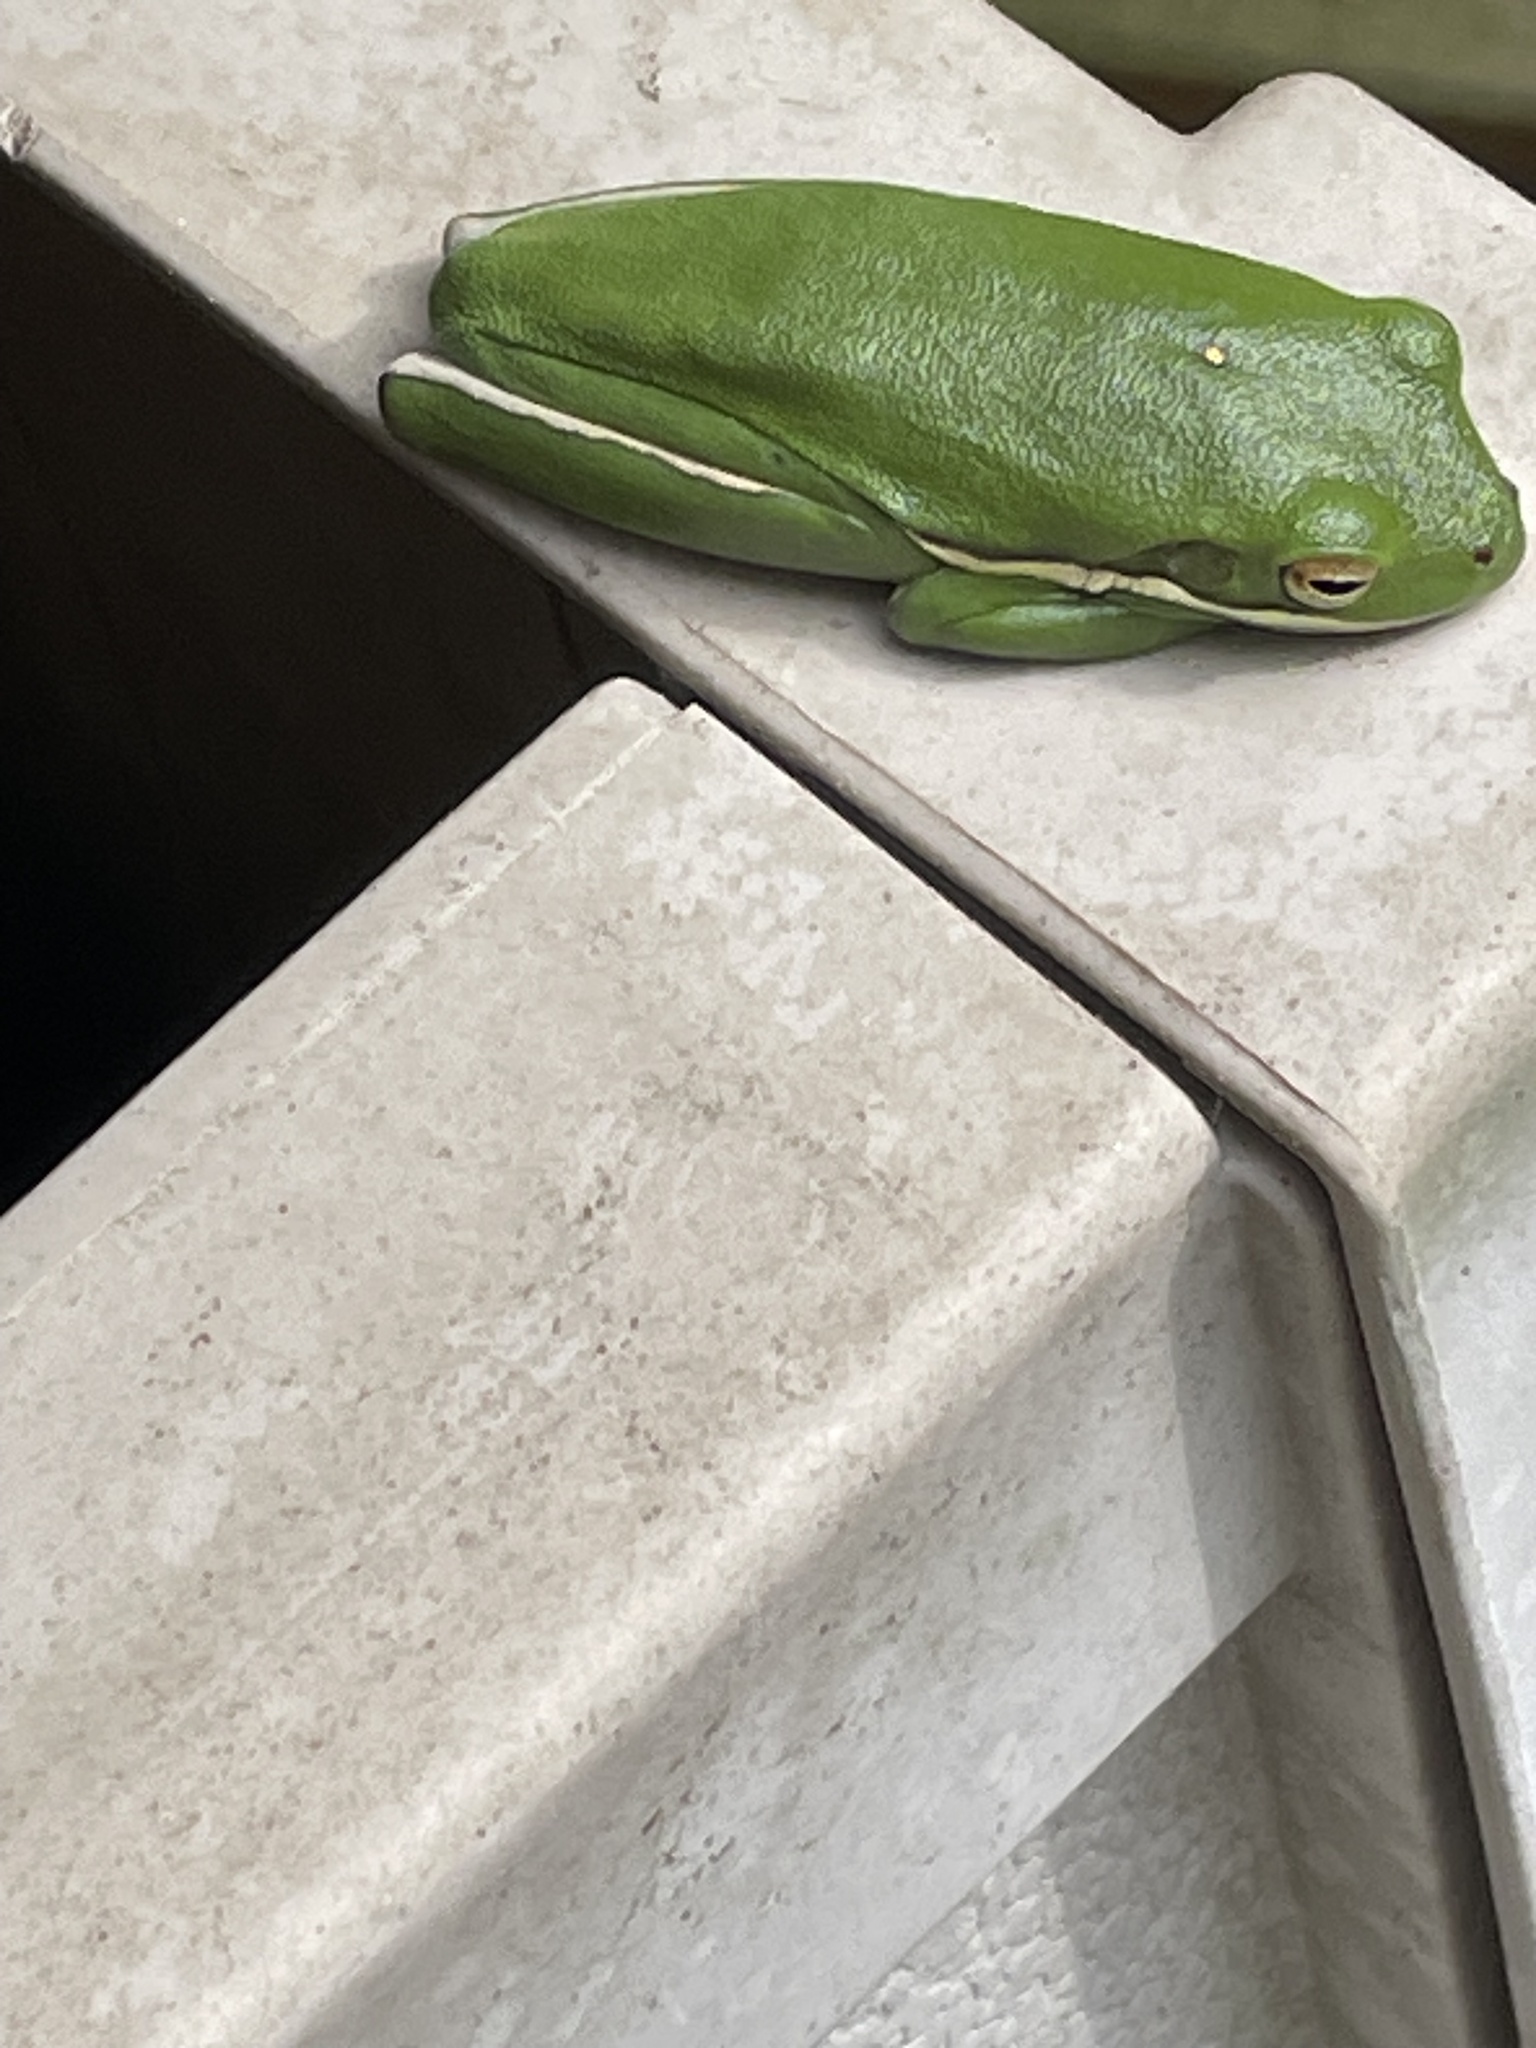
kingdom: Animalia
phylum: Chordata
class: Amphibia
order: Anura
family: Hylidae
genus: Dryophytes
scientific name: Dryophytes cinereus
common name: Green treefrog
